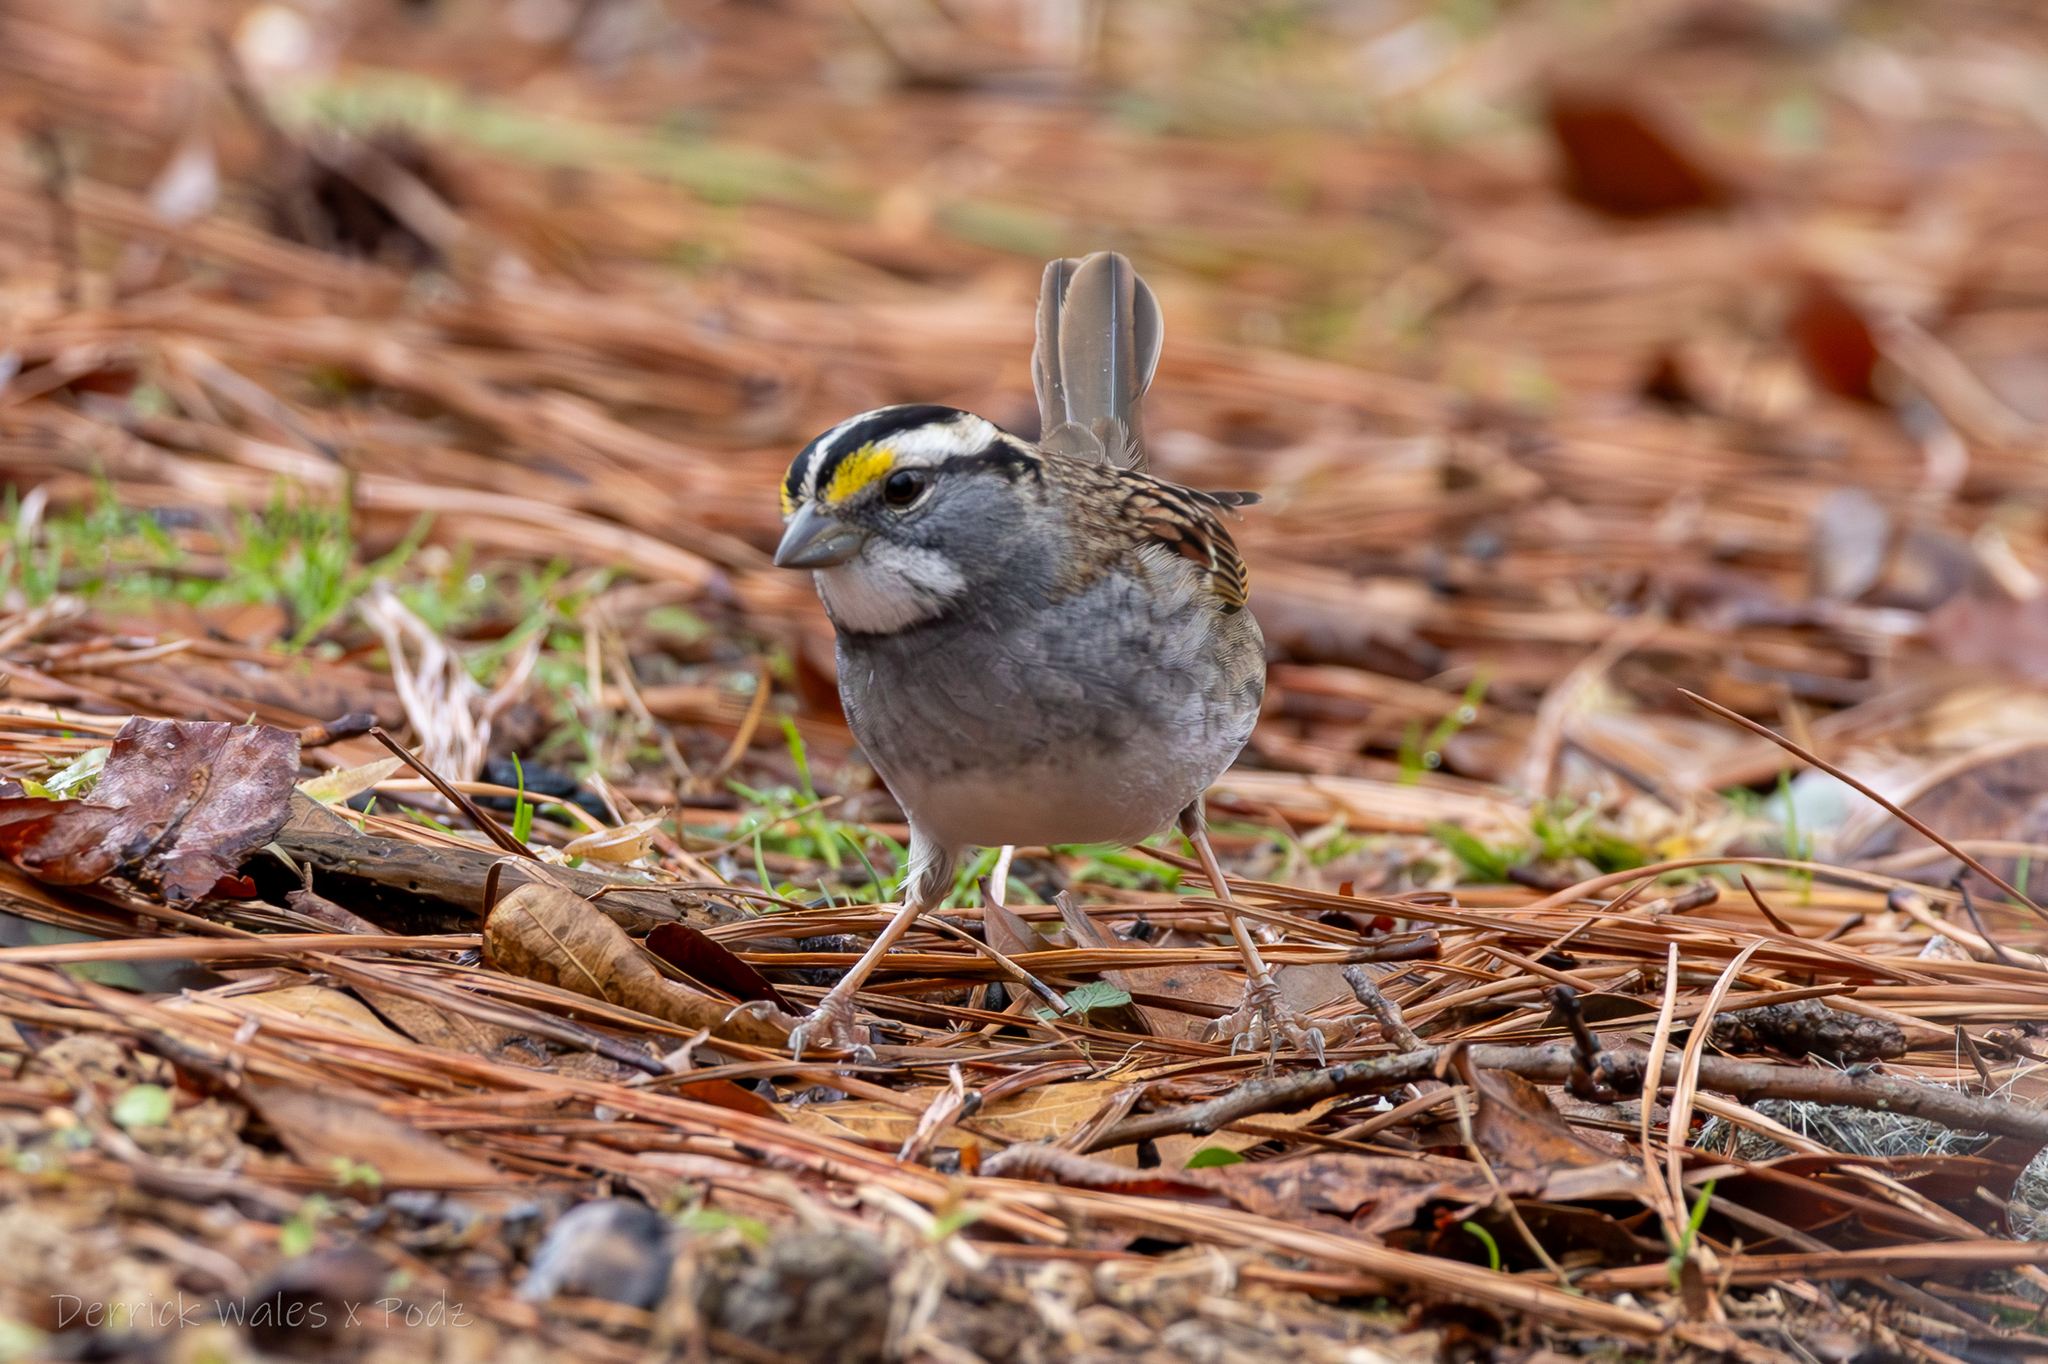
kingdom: Animalia
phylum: Chordata
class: Aves
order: Passeriformes
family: Passerellidae
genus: Zonotrichia
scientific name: Zonotrichia albicollis
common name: White-throated sparrow
